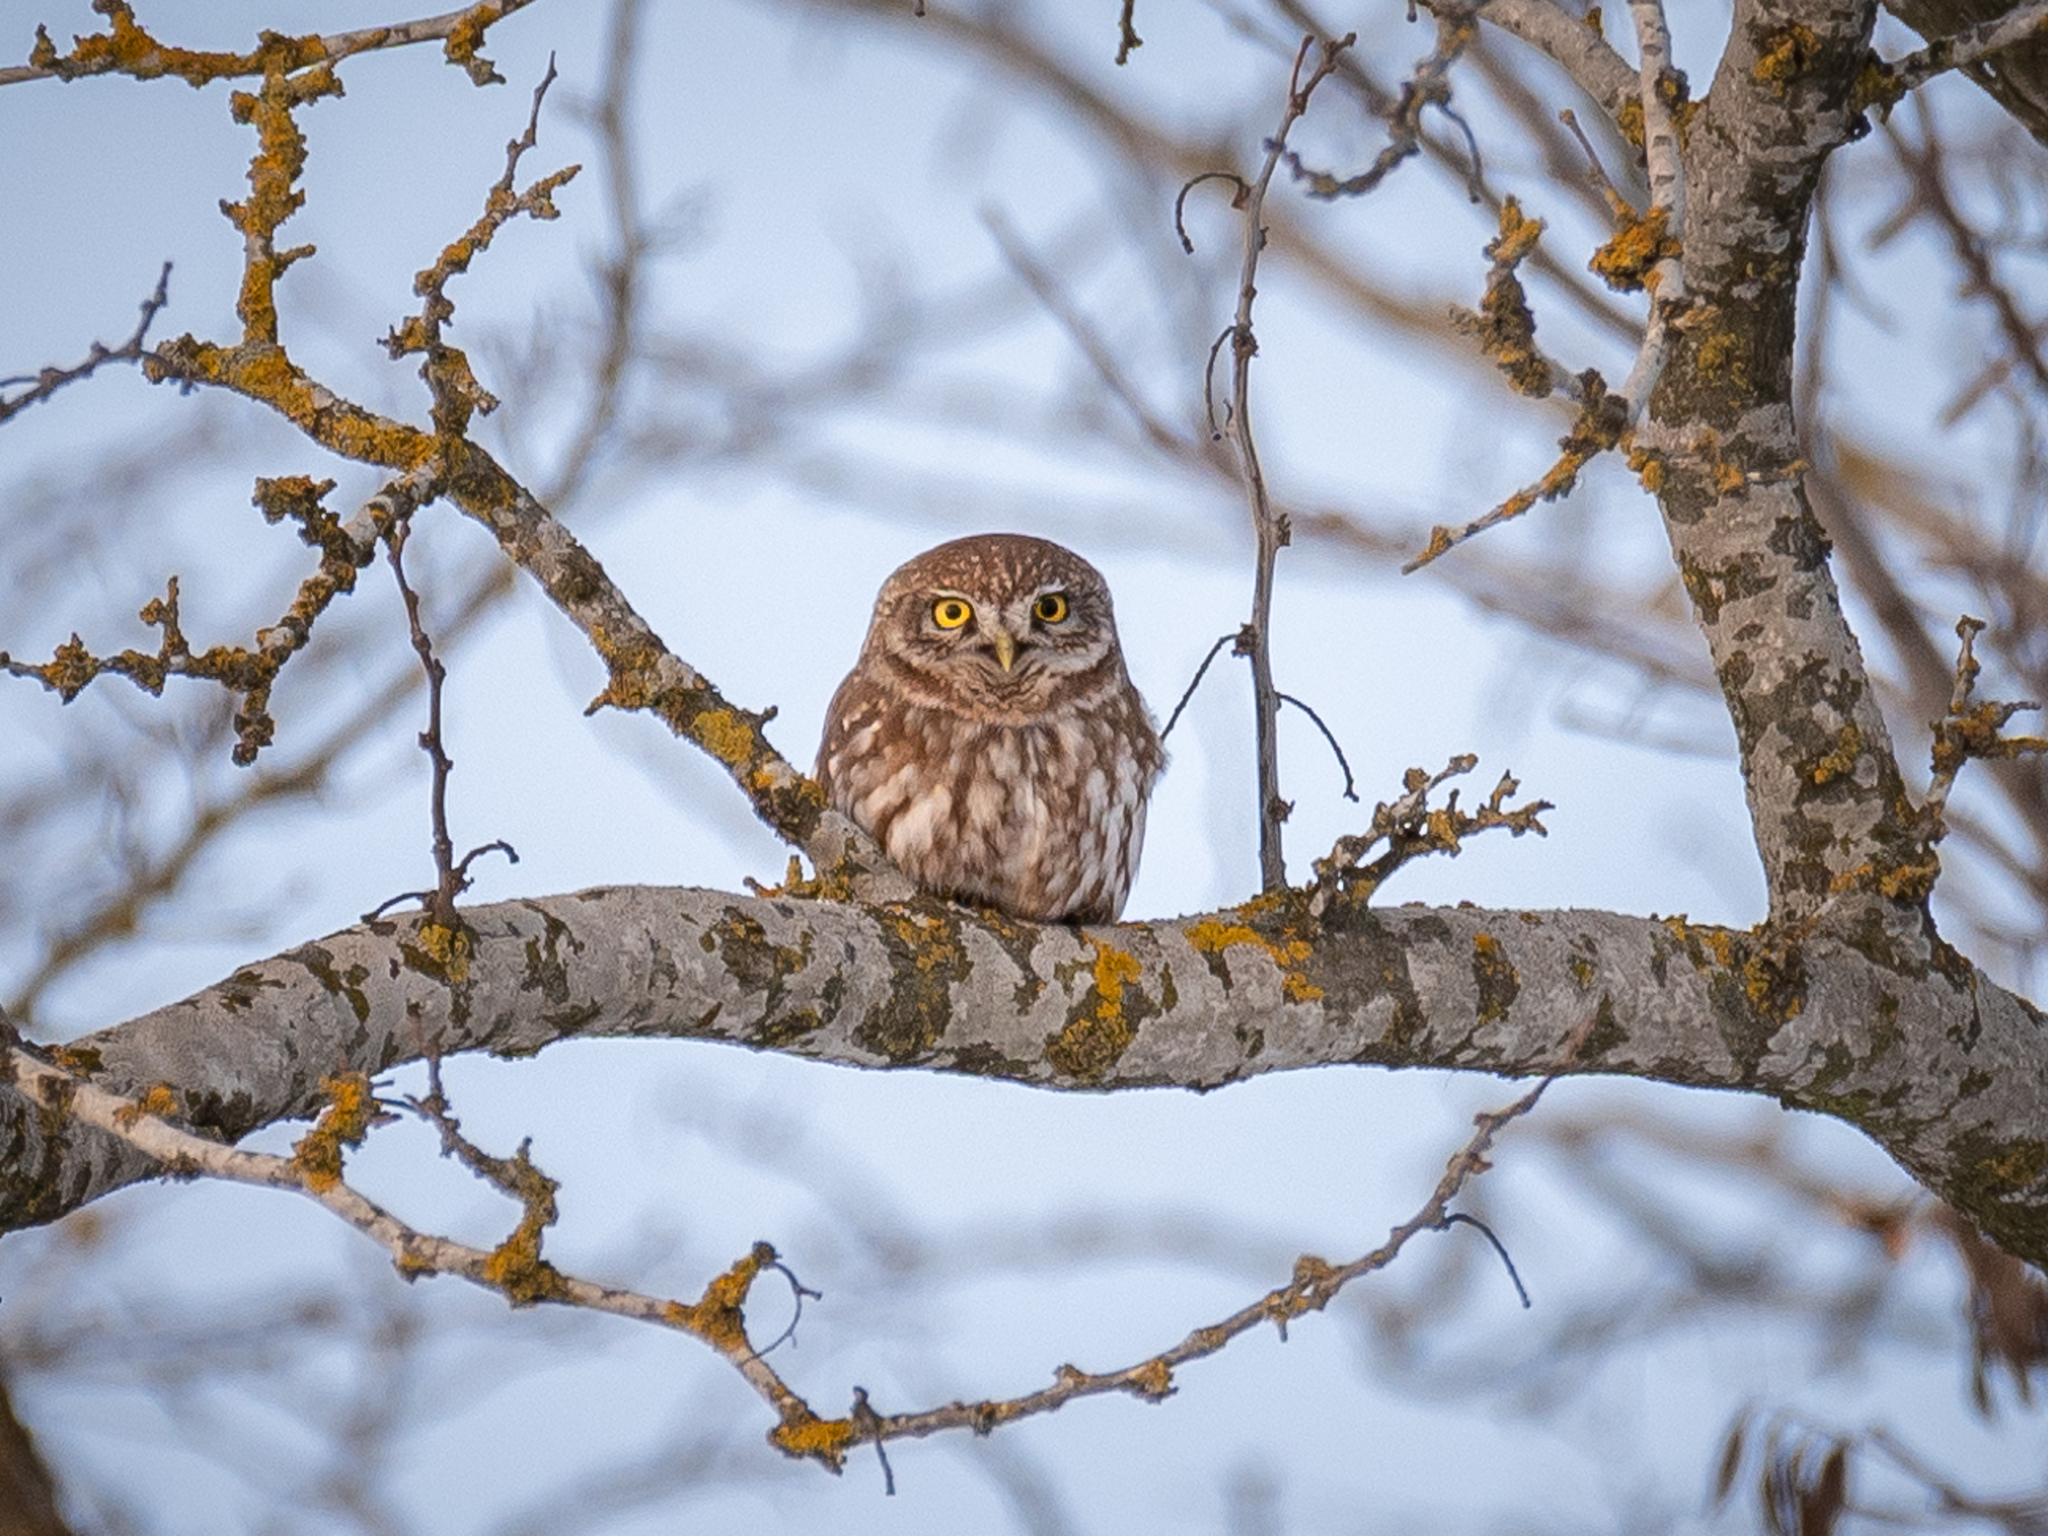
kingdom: Animalia
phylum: Chordata
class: Aves
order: Strigiformes
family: Strigidae
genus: Athene
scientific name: Athene noctua
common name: Little owl
